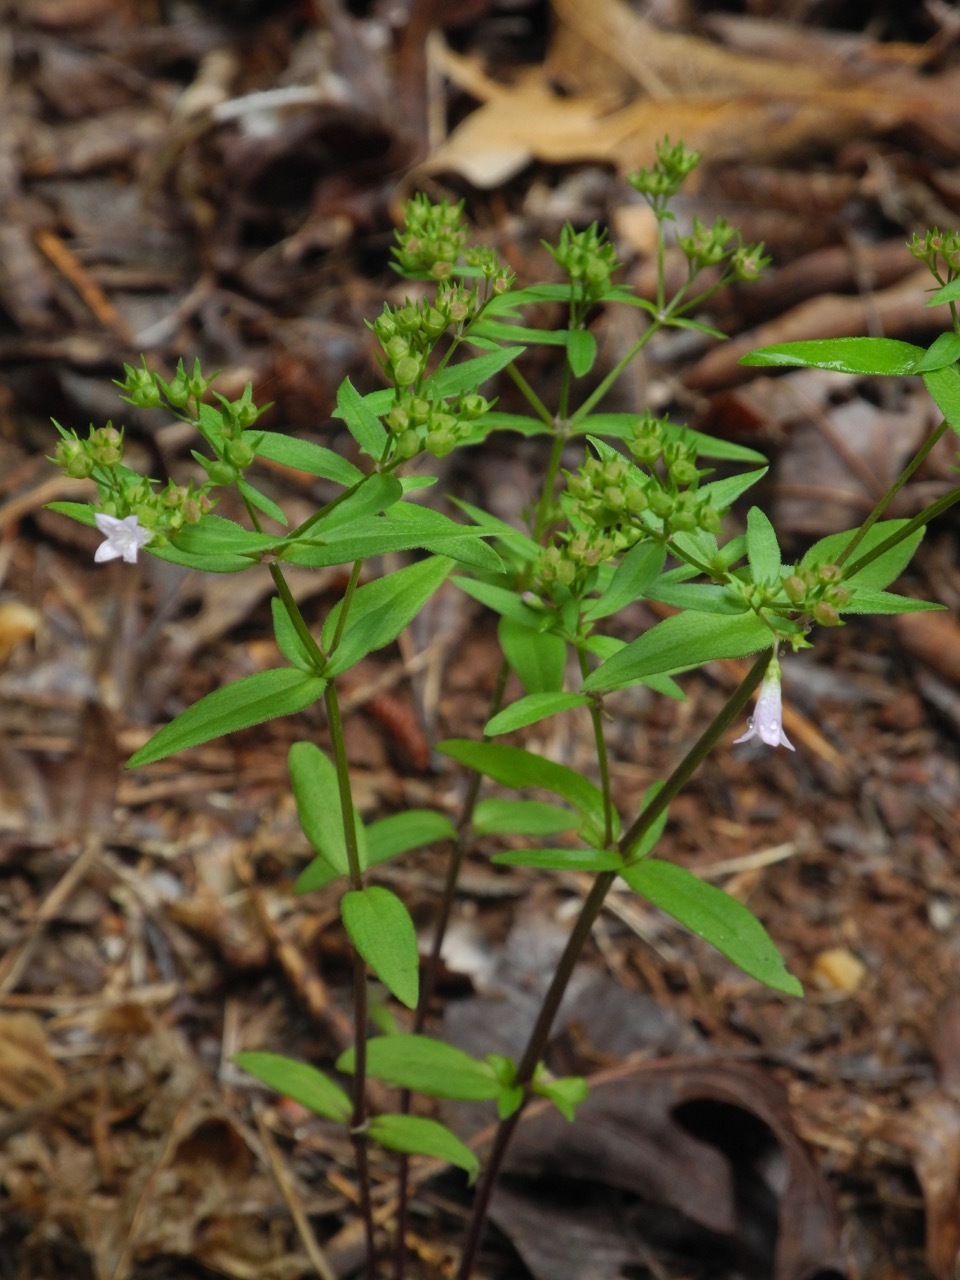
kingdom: Plantae
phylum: Tracheophyta
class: Magnoliopsida
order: Gentianales
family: Rubiaceae
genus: Houstonia
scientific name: Houstonia longifolia
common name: Long-leaved bluets
